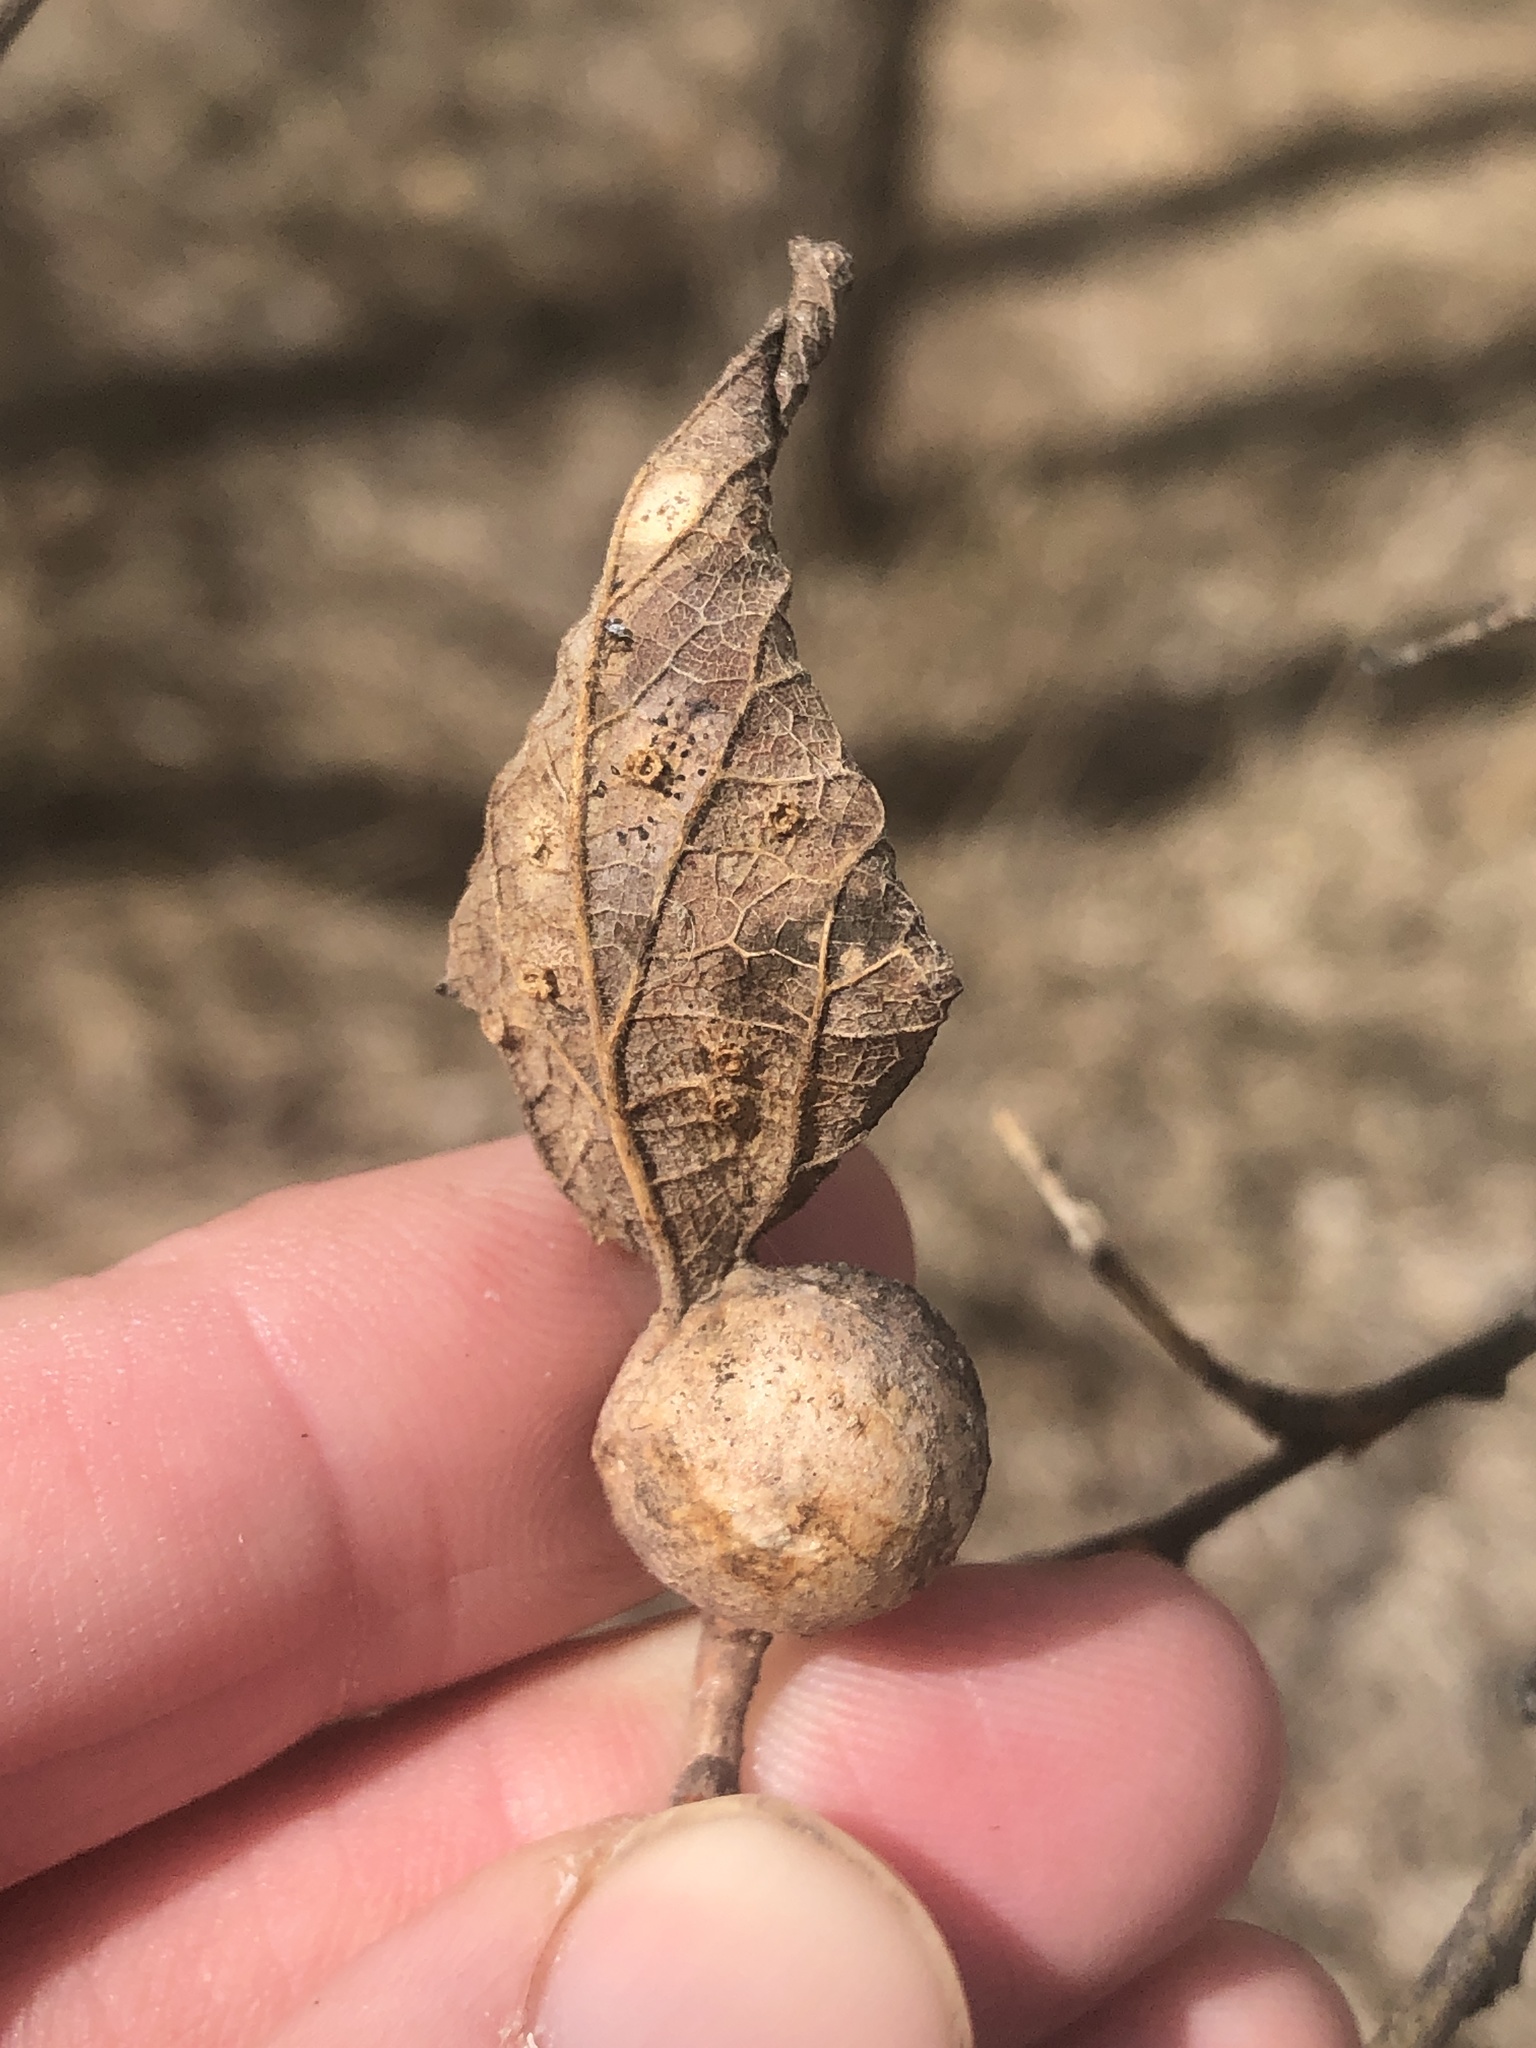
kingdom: Animalia
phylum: Arthropoda
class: Insecta
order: Hemiptera
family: Aphalaridae
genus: Pachypsylla
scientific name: Pachypsylla venusta
